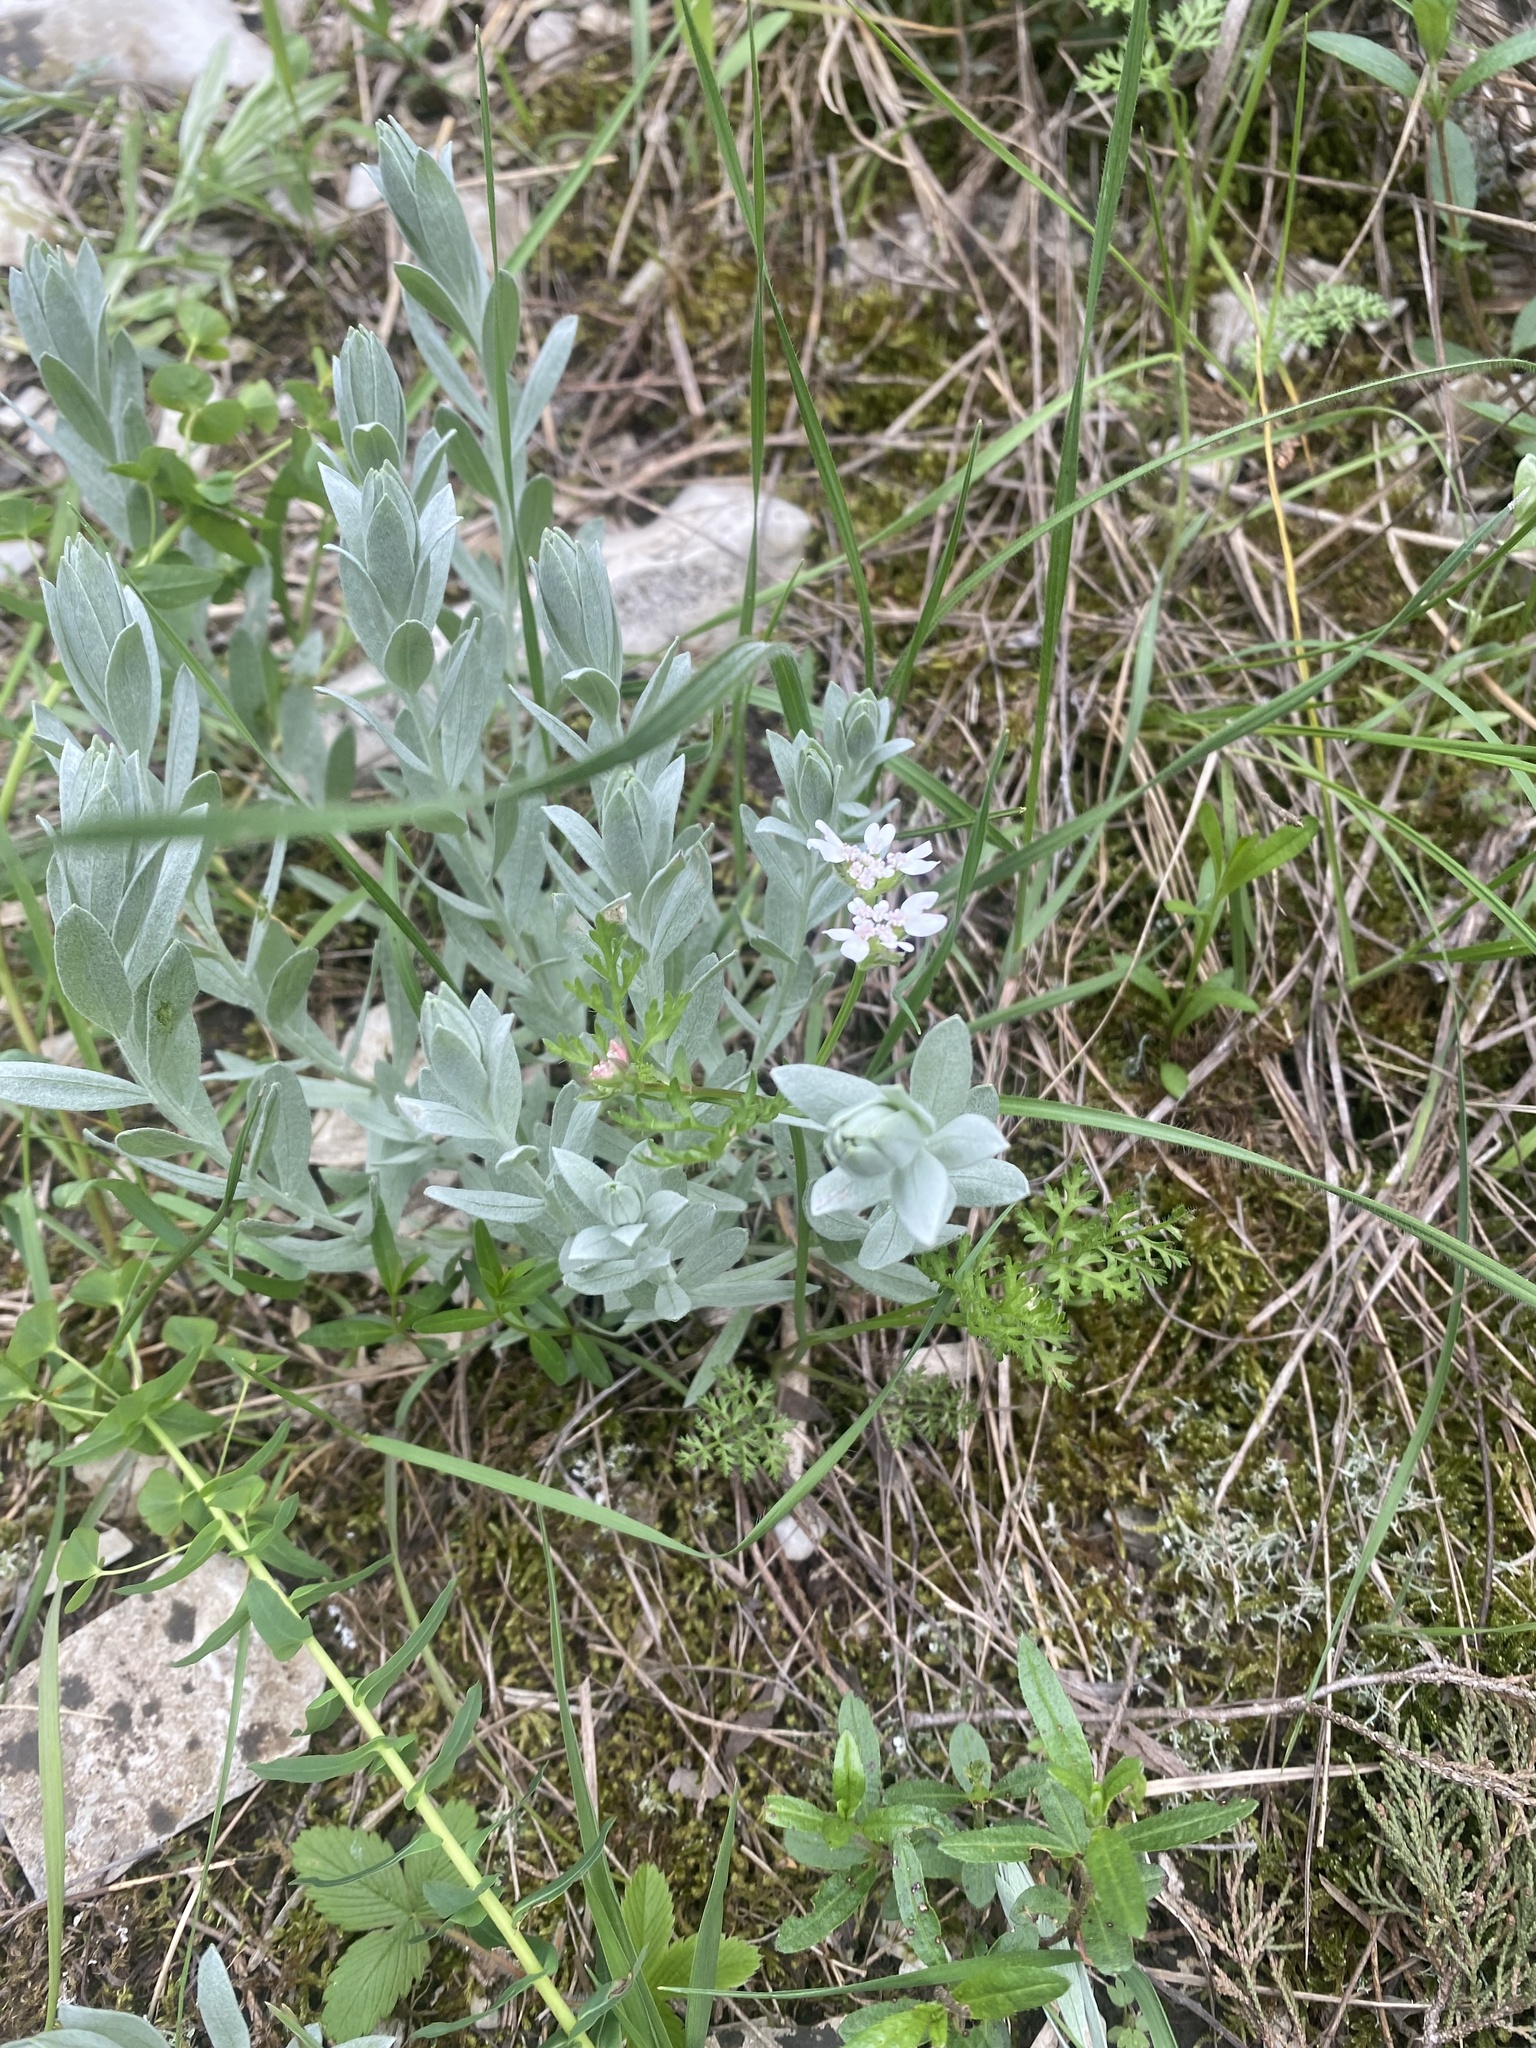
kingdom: Plantae
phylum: Tracheophyta
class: Magnoliopsida
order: Asterales
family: Asteraceae
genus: Galatella
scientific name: Galatella villosa
